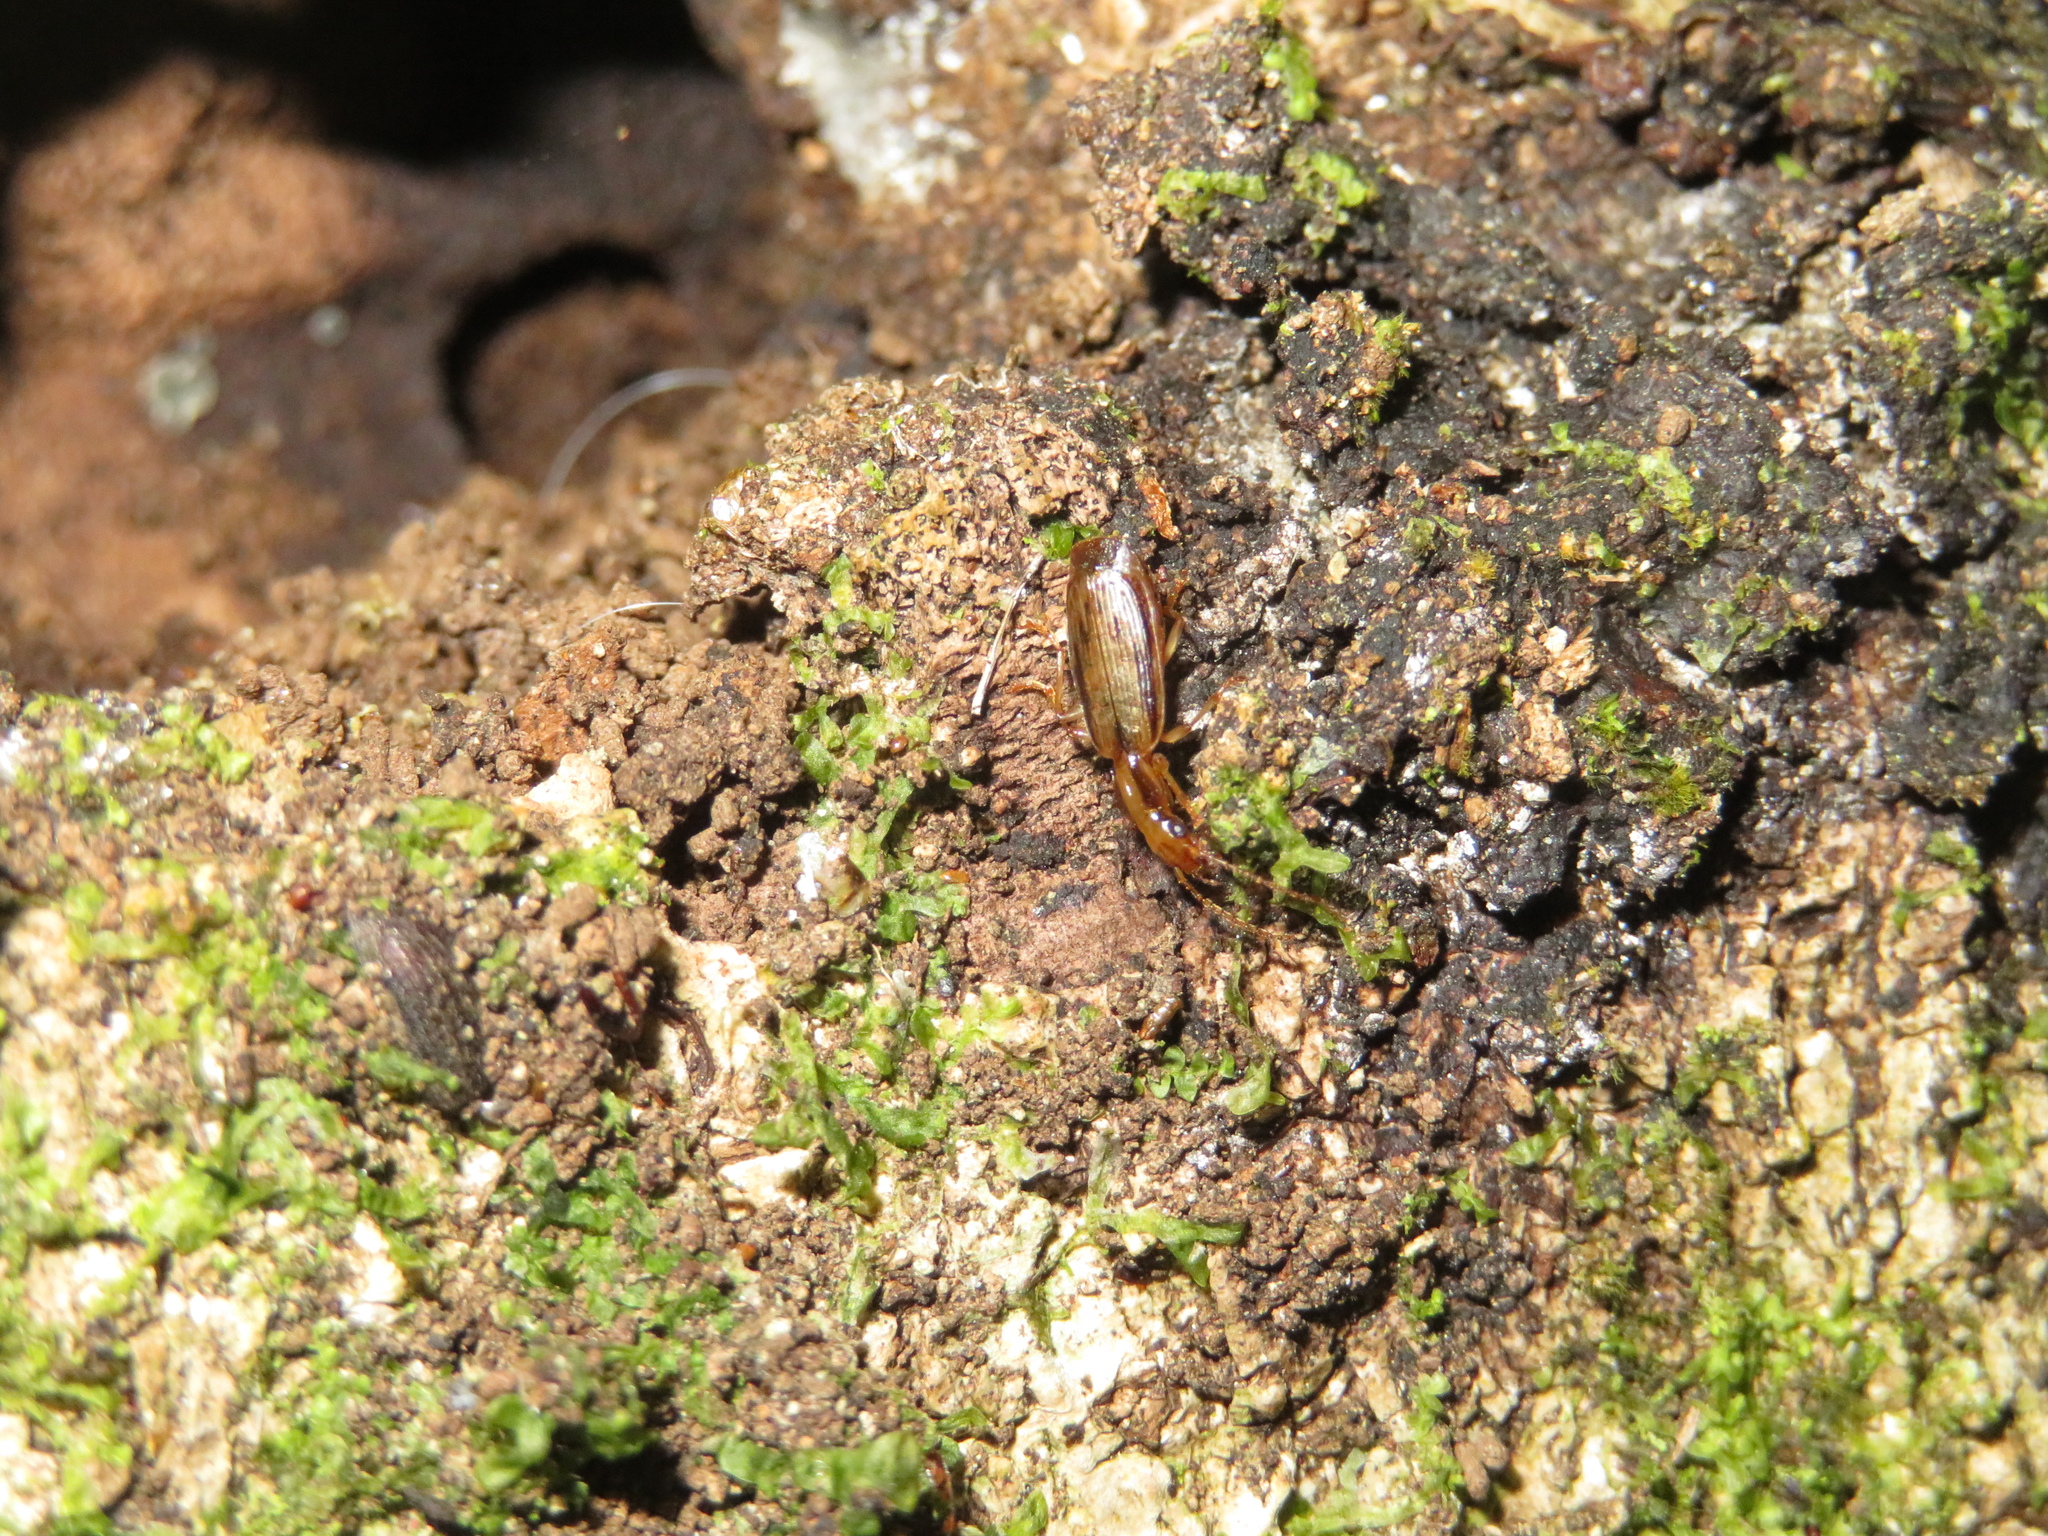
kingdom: Animalia
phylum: Arthropoda
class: Insecta
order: Coleoptera
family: Carabidae
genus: Demetrida
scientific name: Demetrida lineella
